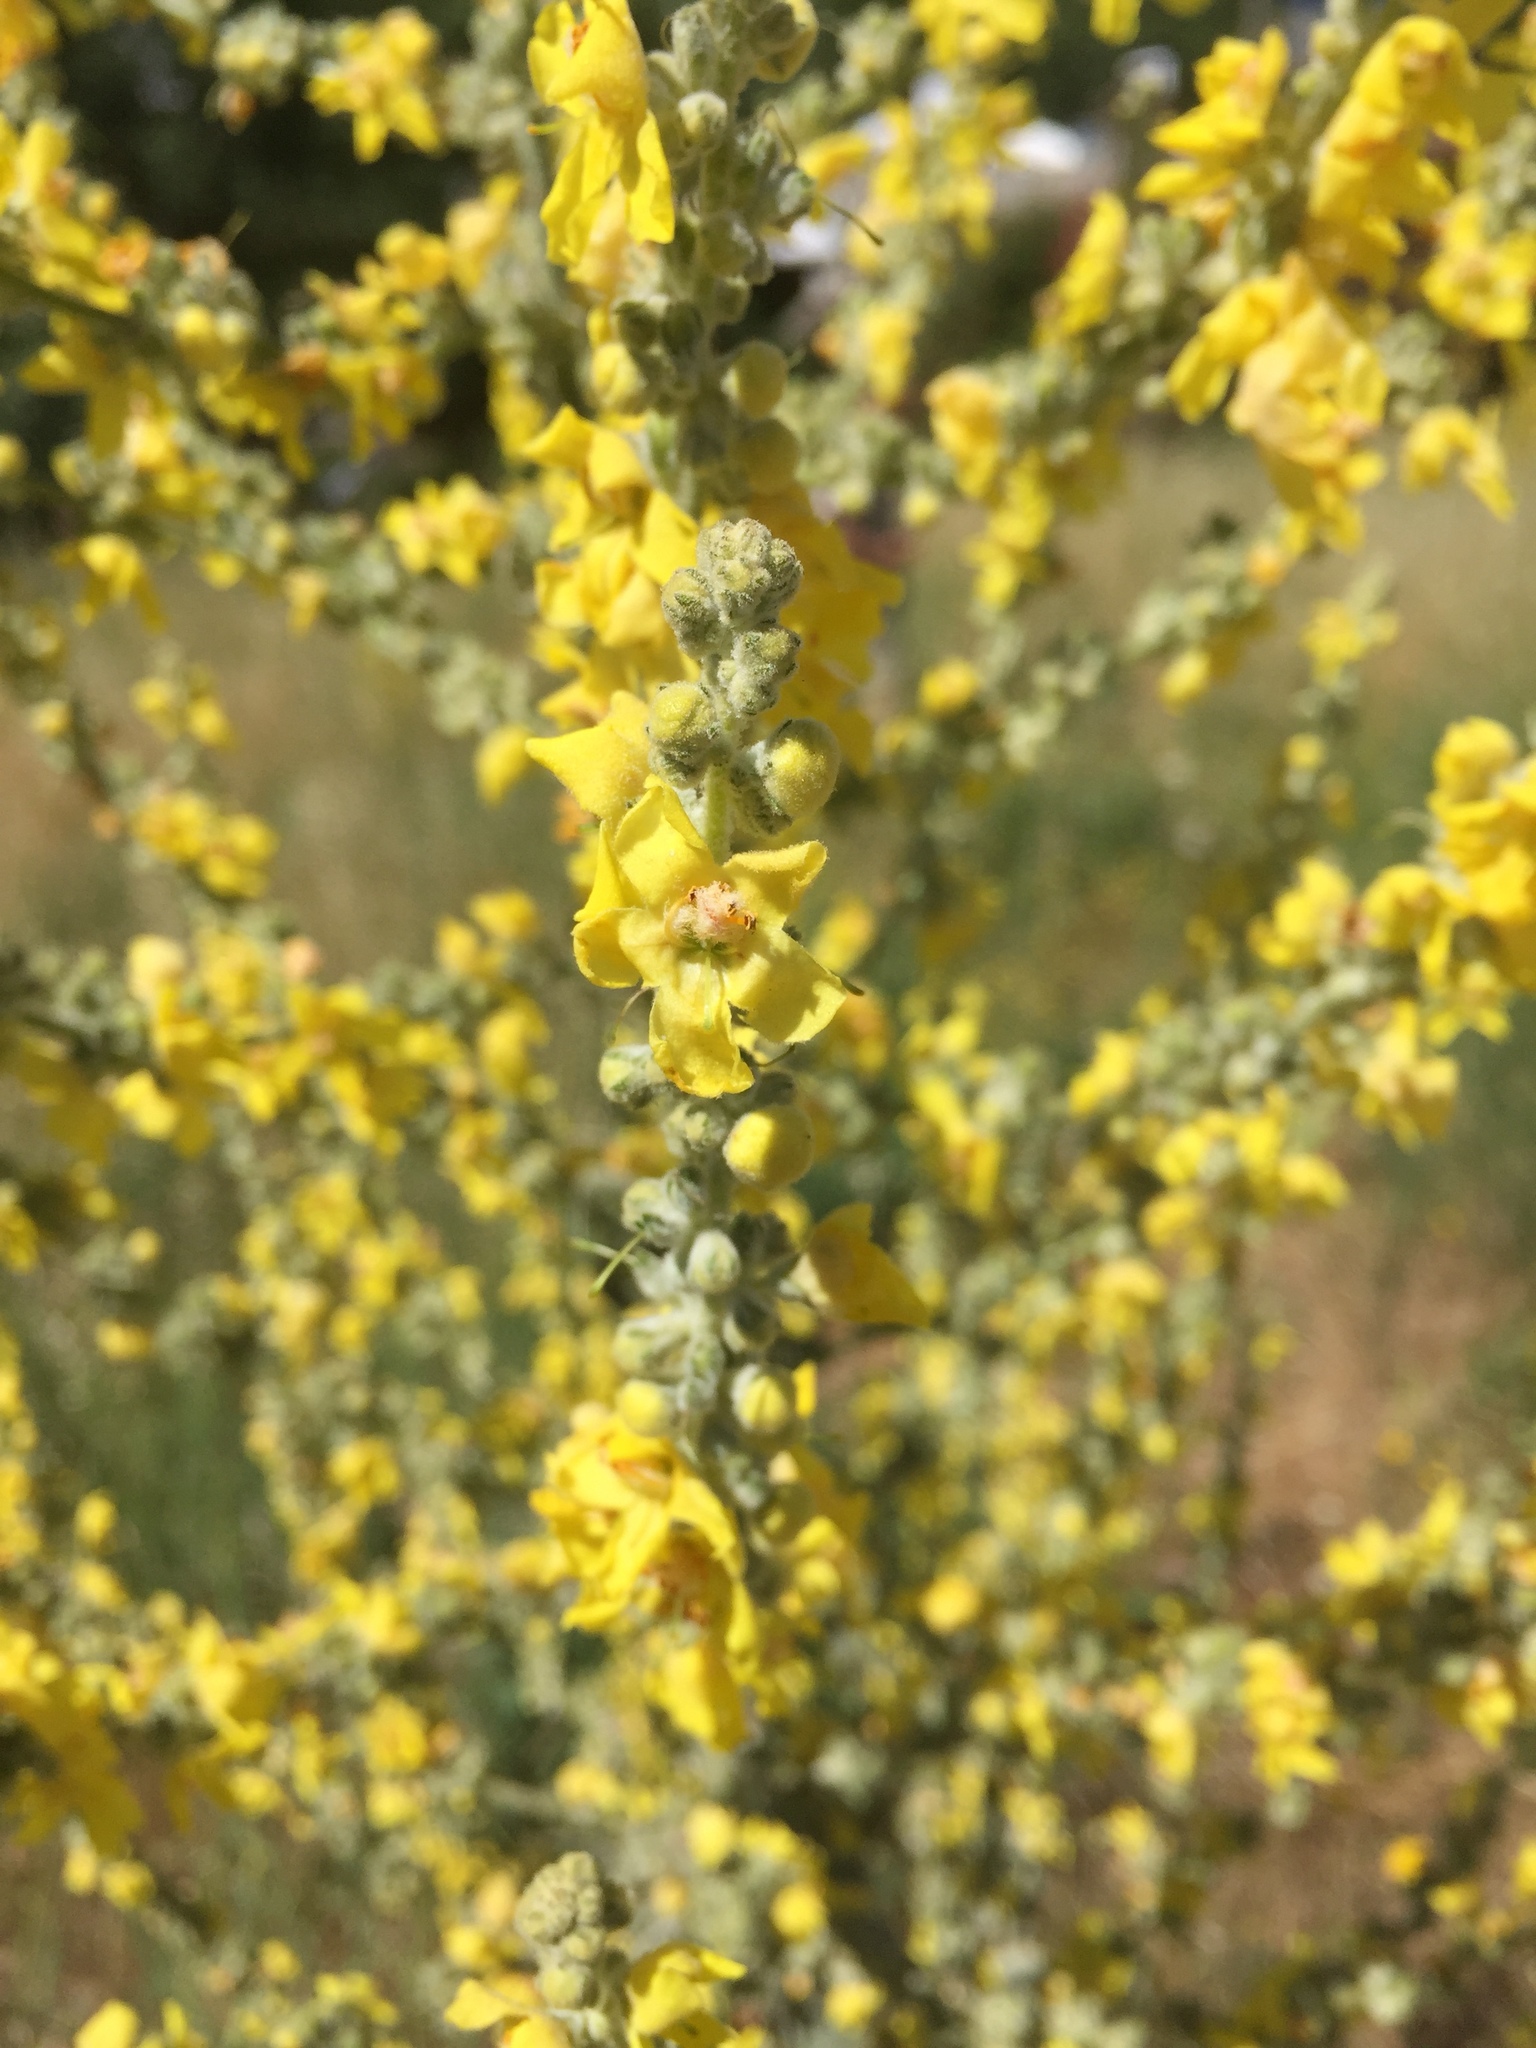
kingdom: Plantae
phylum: Tracheophyta
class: Magnoliopsida
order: Lamiales
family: Scrophulariaceae
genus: Verbascum
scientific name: Verbascum pulverulentum
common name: Broad-leaf mullein
